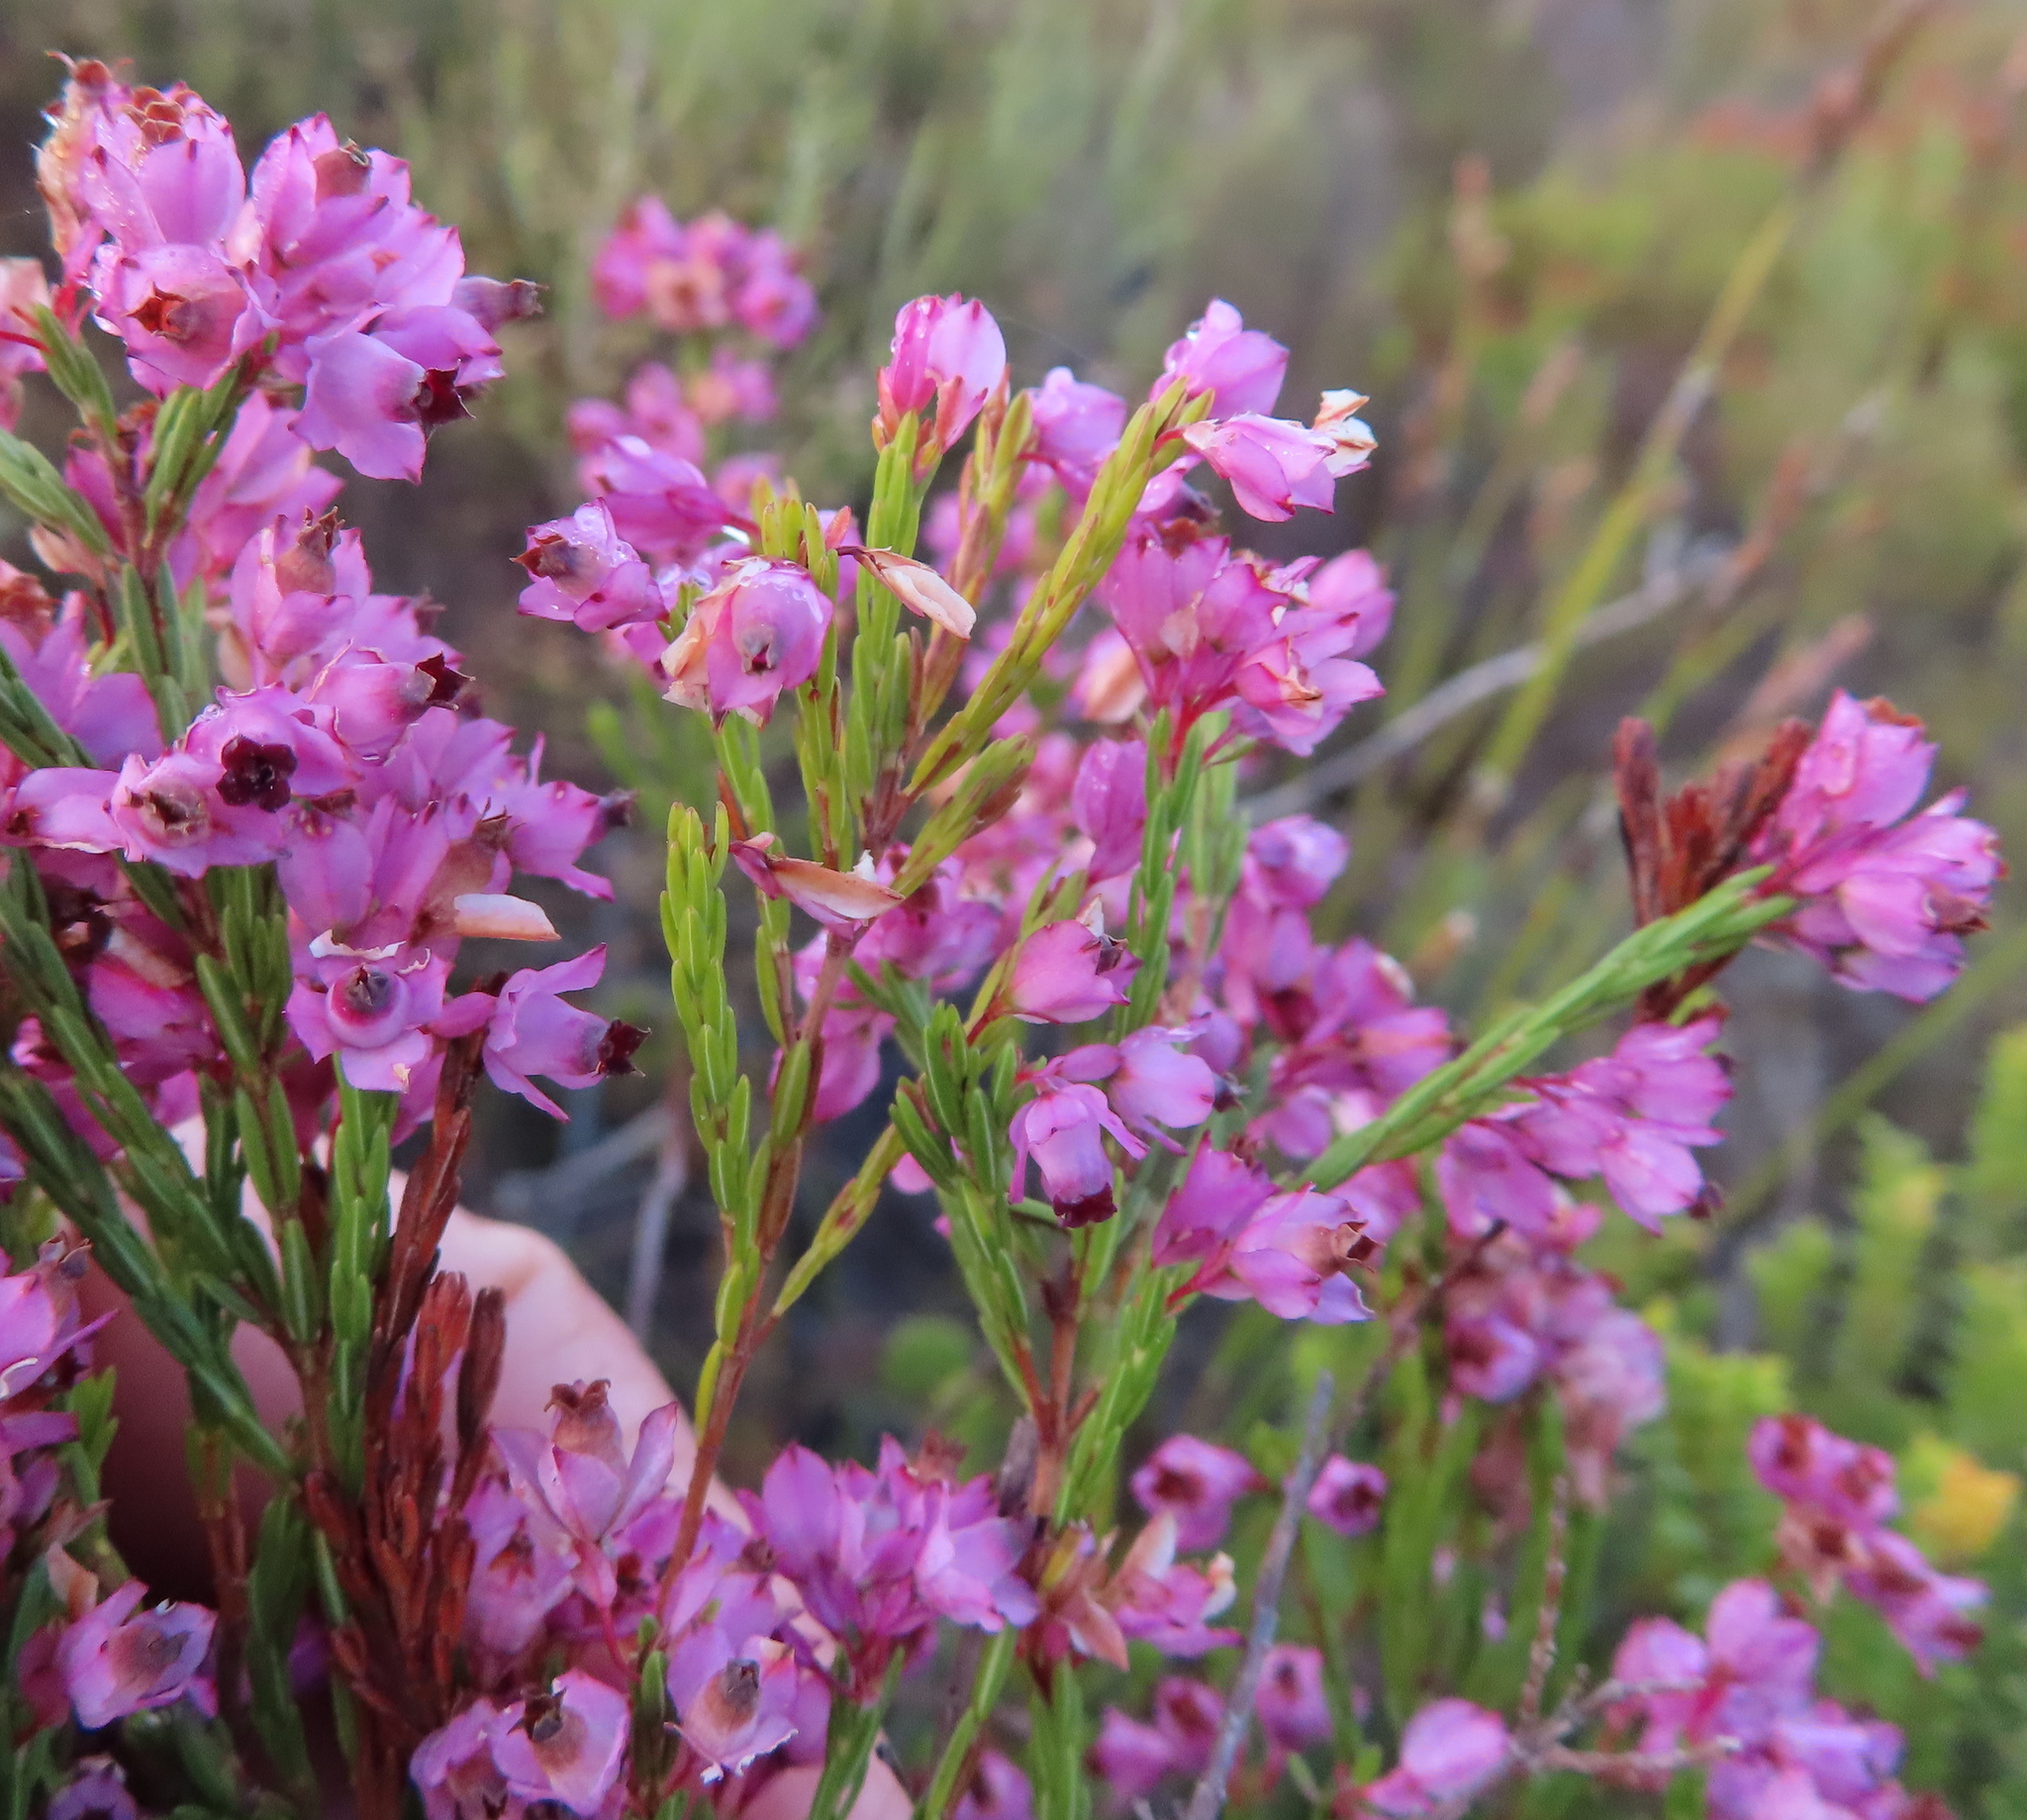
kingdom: Plantae
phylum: Tracheophyta
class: Magnoliopsida
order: Ericales
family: Ericaceae
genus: Erica
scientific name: Erica corifolia
